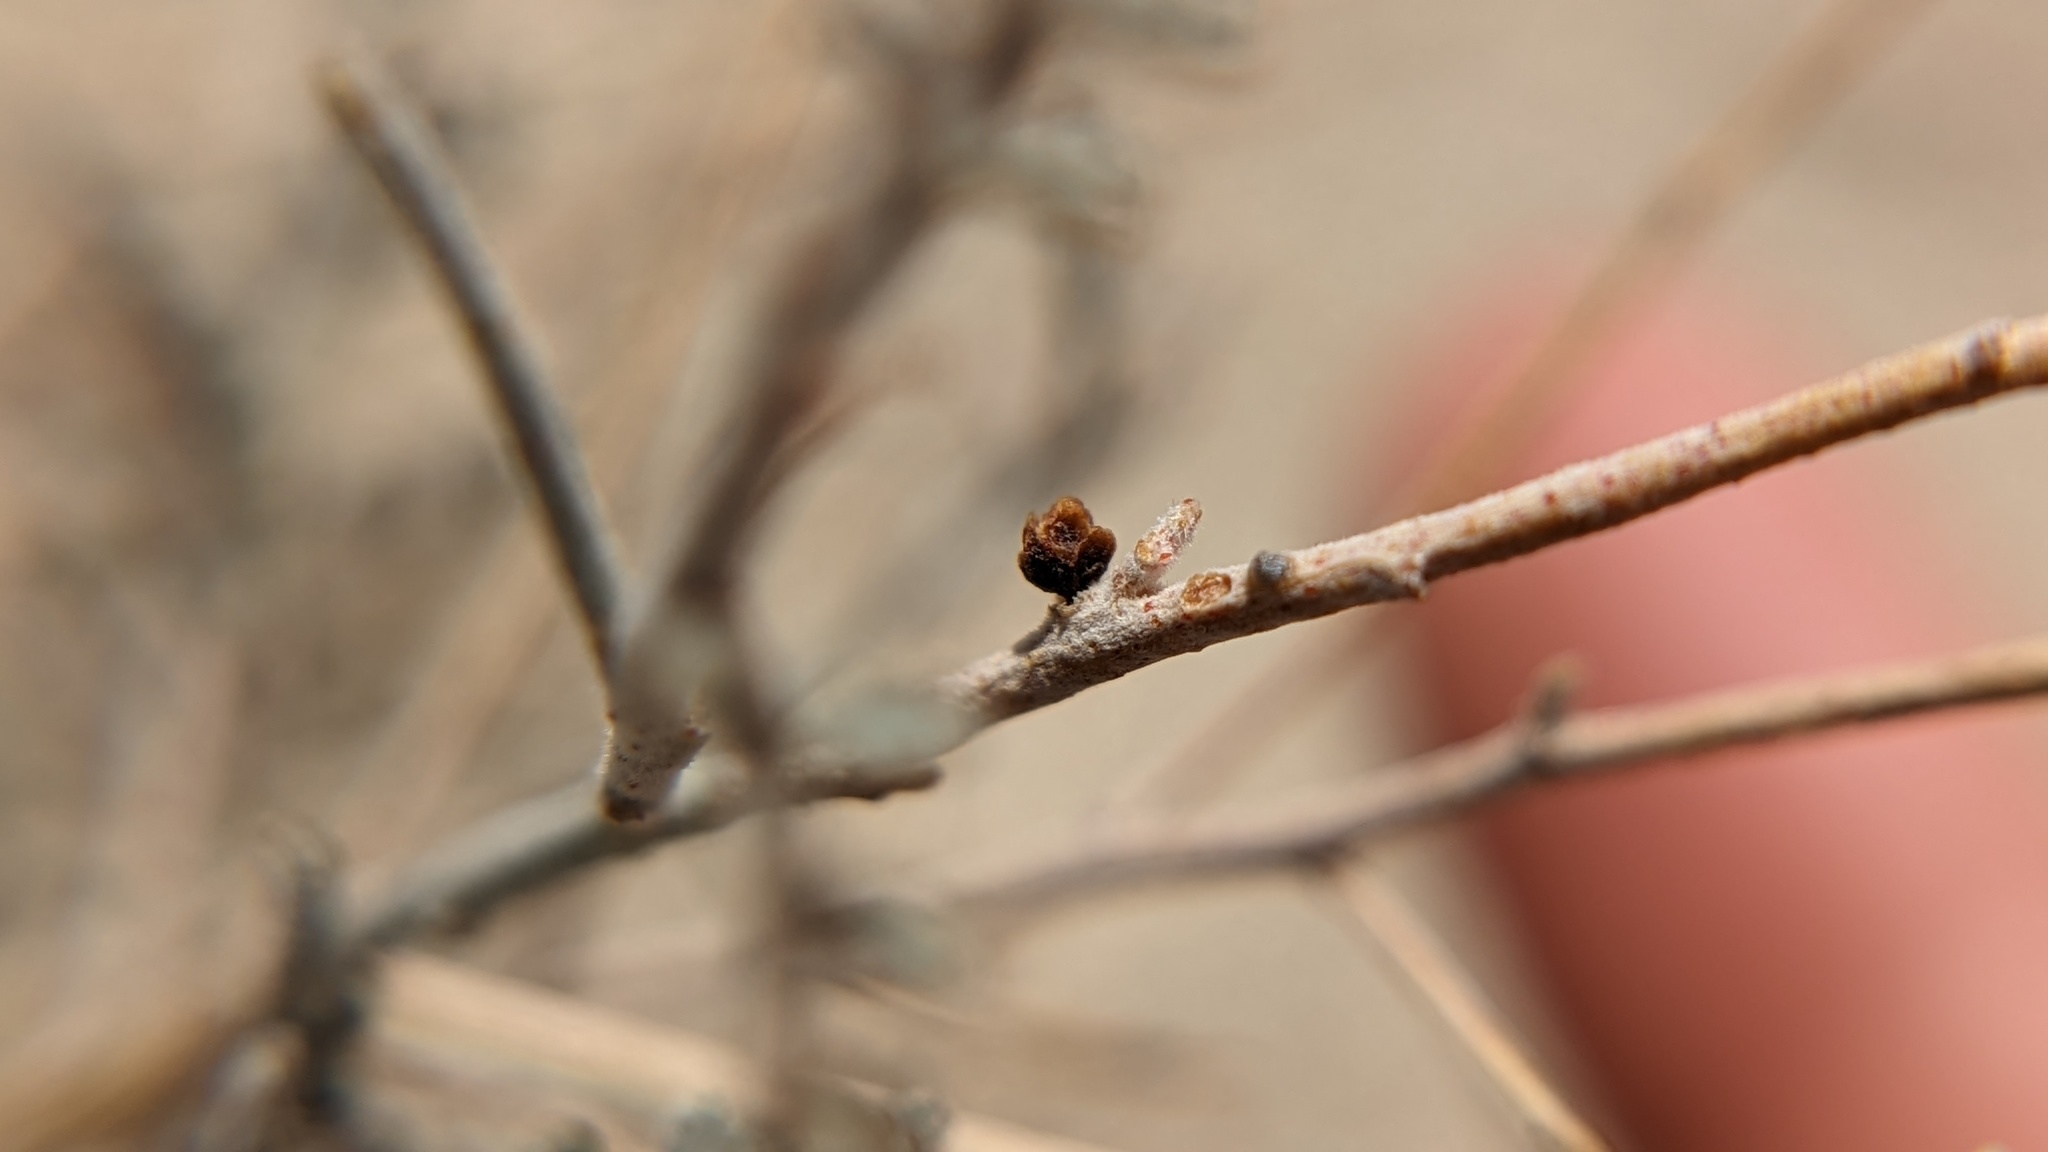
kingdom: Plantae
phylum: Tracheophyta
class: Magnoliopsida
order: Cucurbitales
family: Apodanthaceae
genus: Pilostyles
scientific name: Pilostyles thurberi
